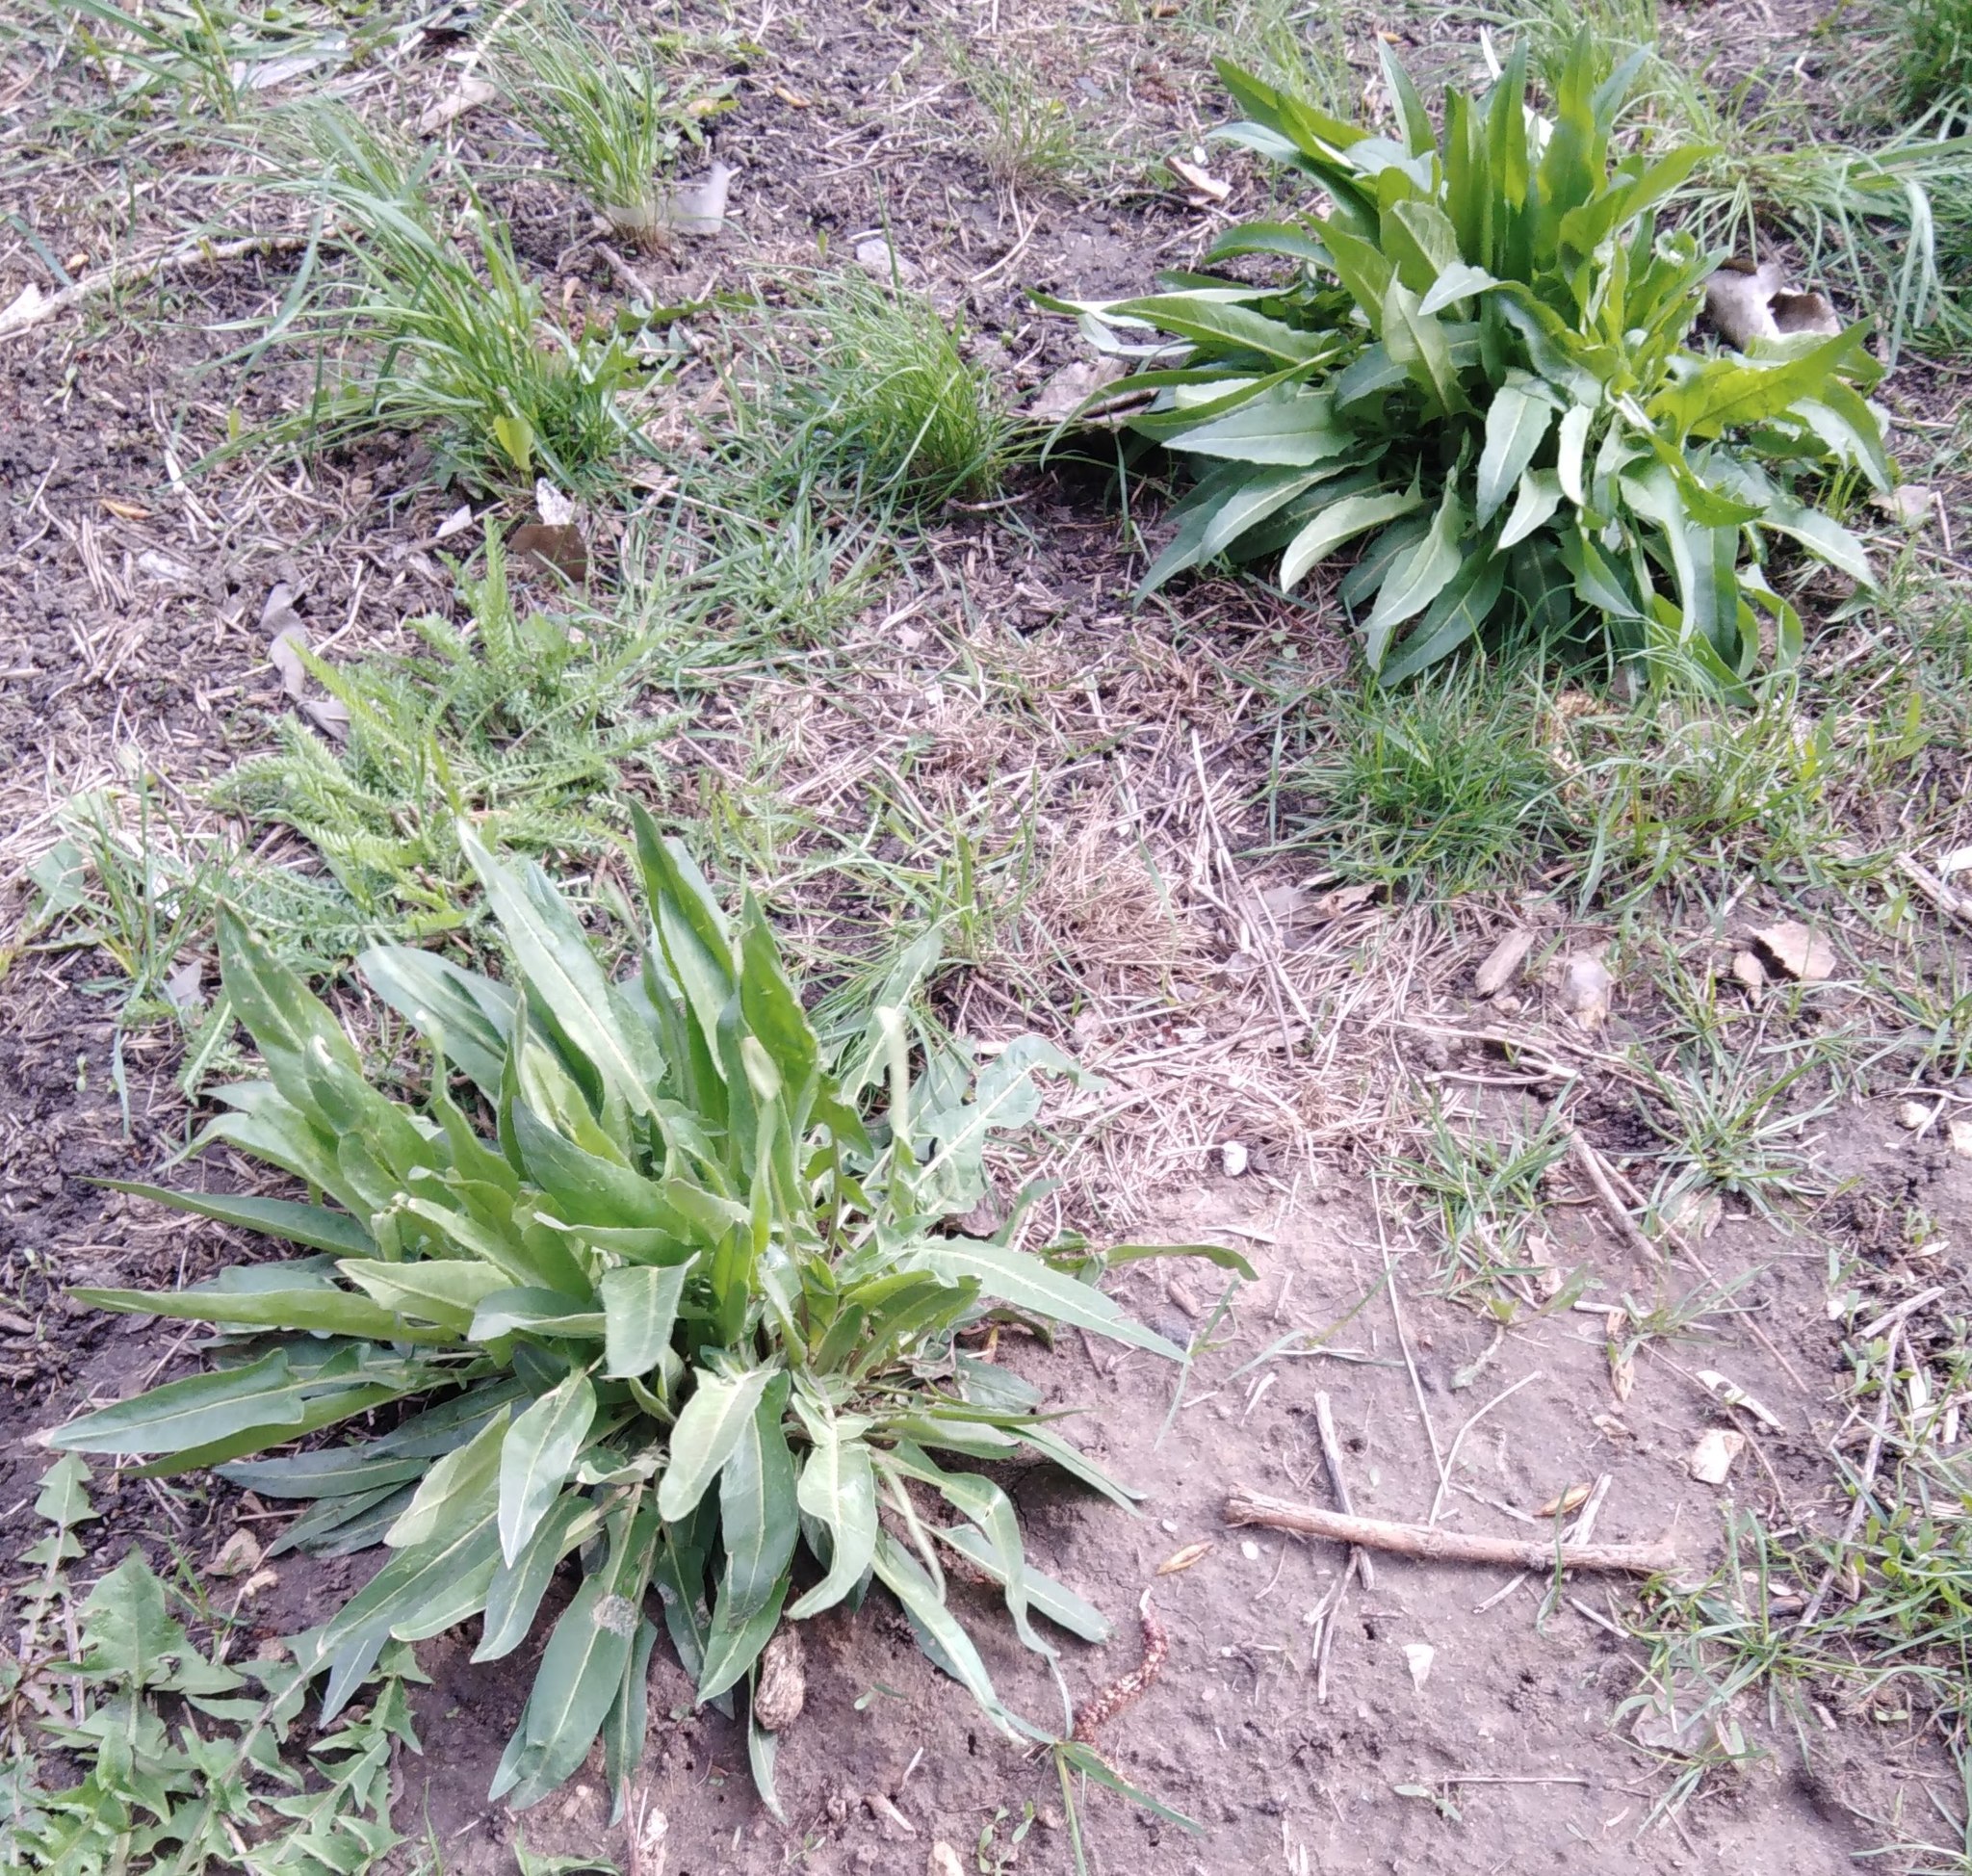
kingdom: Plantae
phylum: Tracheophyta
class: Magnoliopsida
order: Brassicales
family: Brassicaceae
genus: Bunias
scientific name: Bunias orientalis
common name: Warty-cabbage
